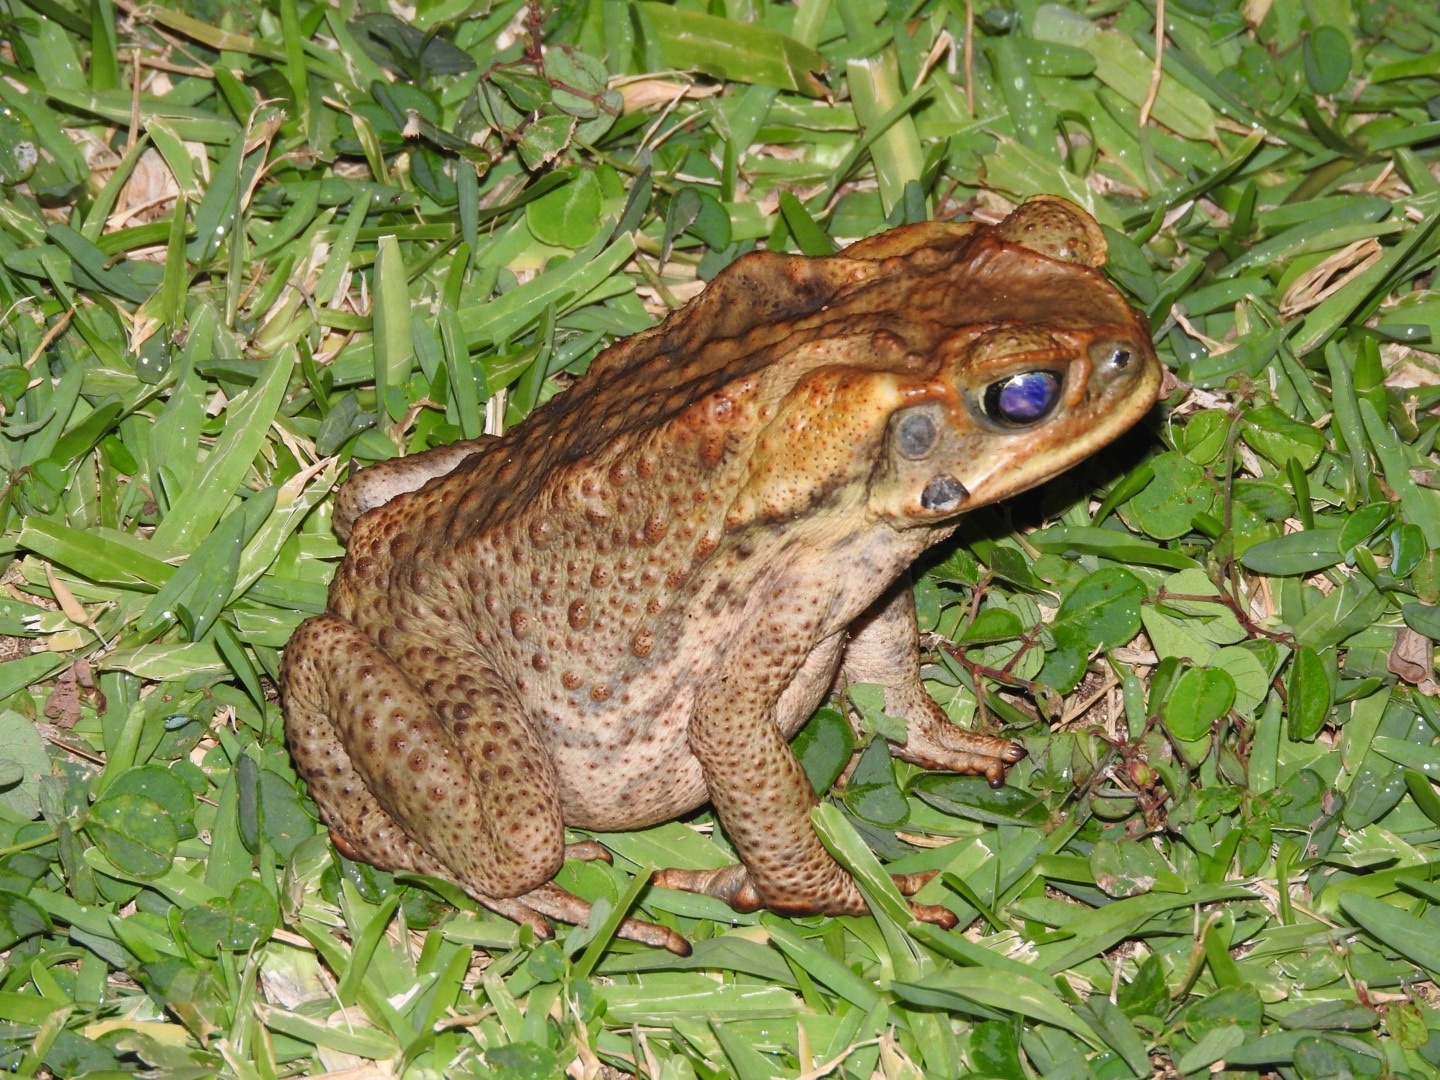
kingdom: Animalia
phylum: Chordata
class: Amphibia
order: Anura
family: Bufonidae
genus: Rhinella
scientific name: Rhinella marina
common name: Cane toad
